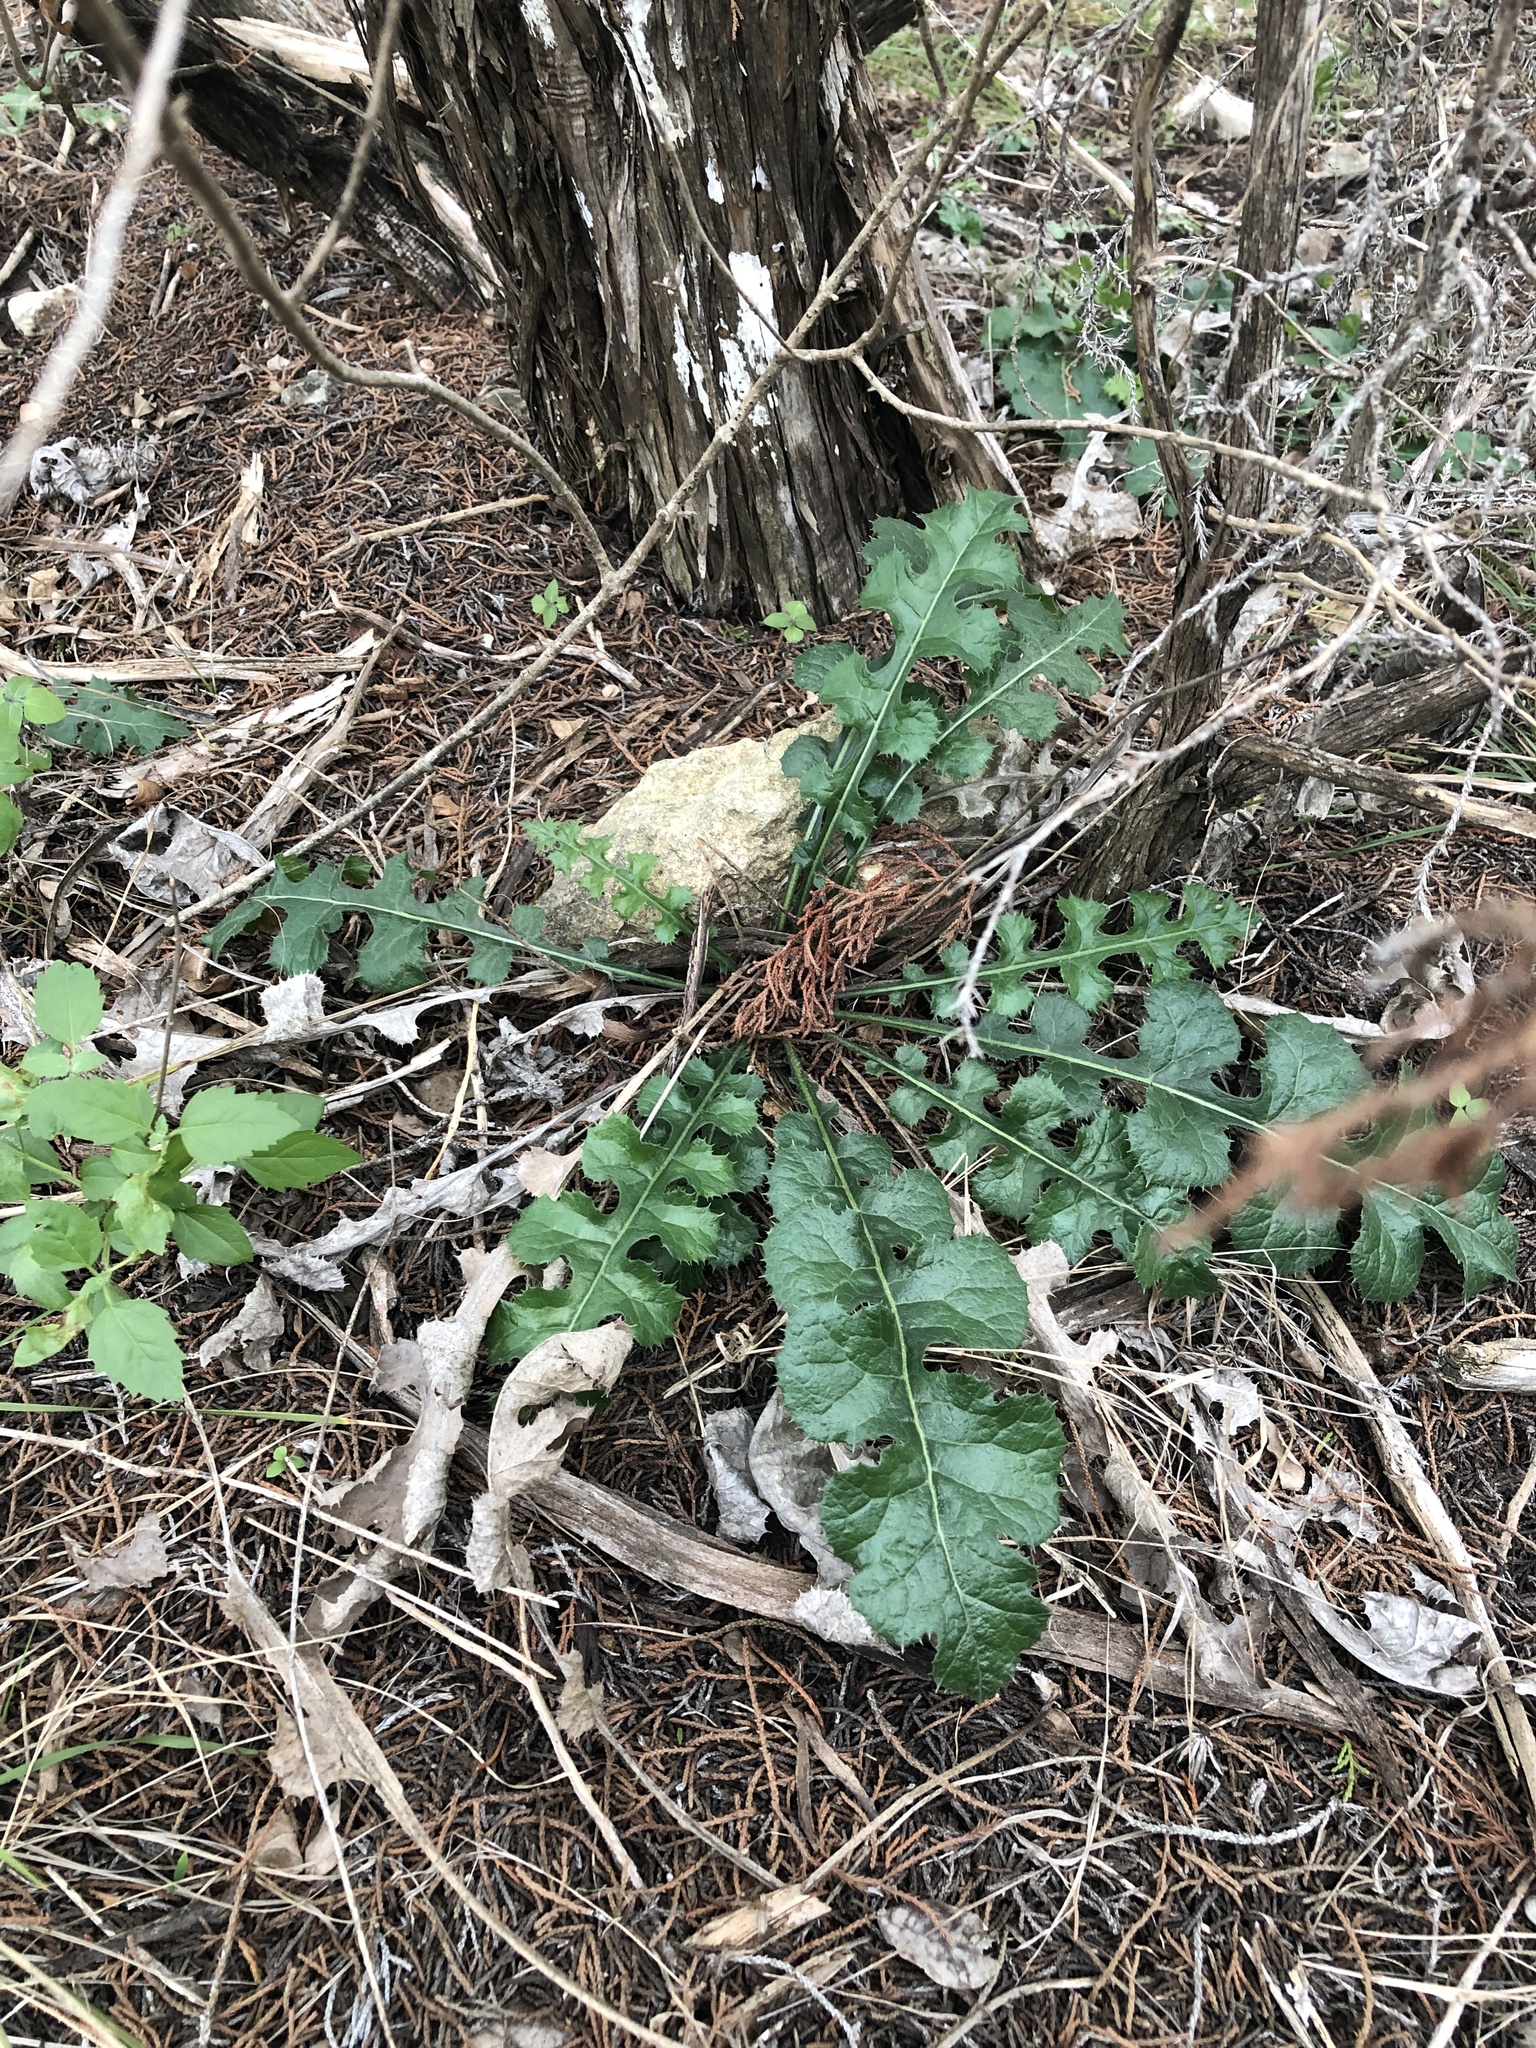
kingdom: Plantae
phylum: Tracheophyta
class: Magnoliopsida
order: Asterales
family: Asteraceae
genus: Acourtia
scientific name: Acourtia runcinata
